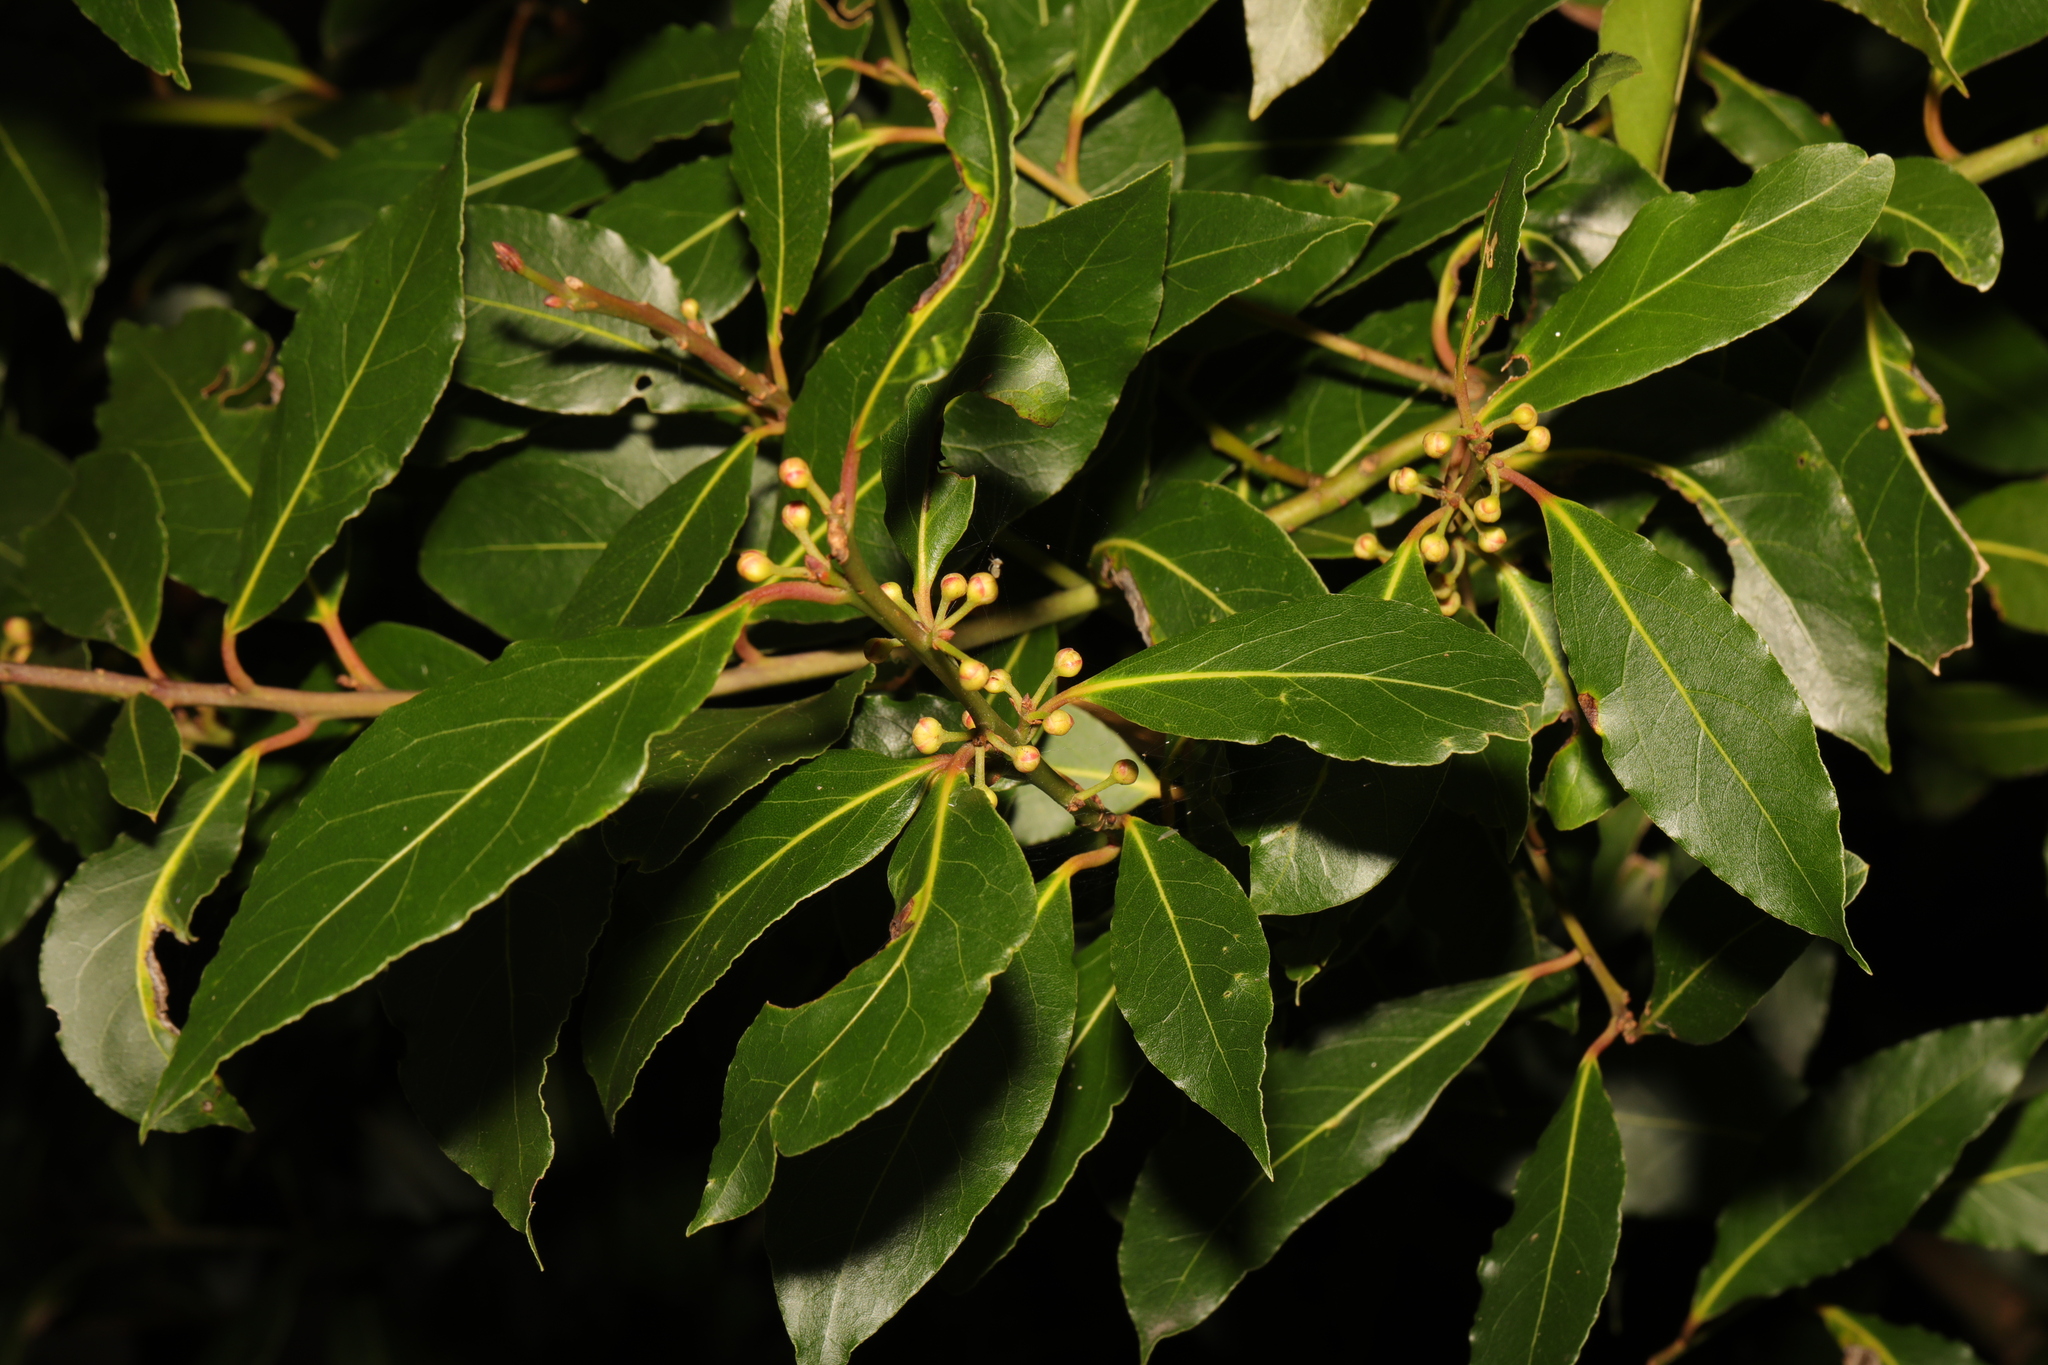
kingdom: Plantae
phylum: Tracheophyta
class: Magnoliopsida
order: Laurales
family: Lauraceae
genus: Laurus
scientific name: Laurus nobilis
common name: Bay
